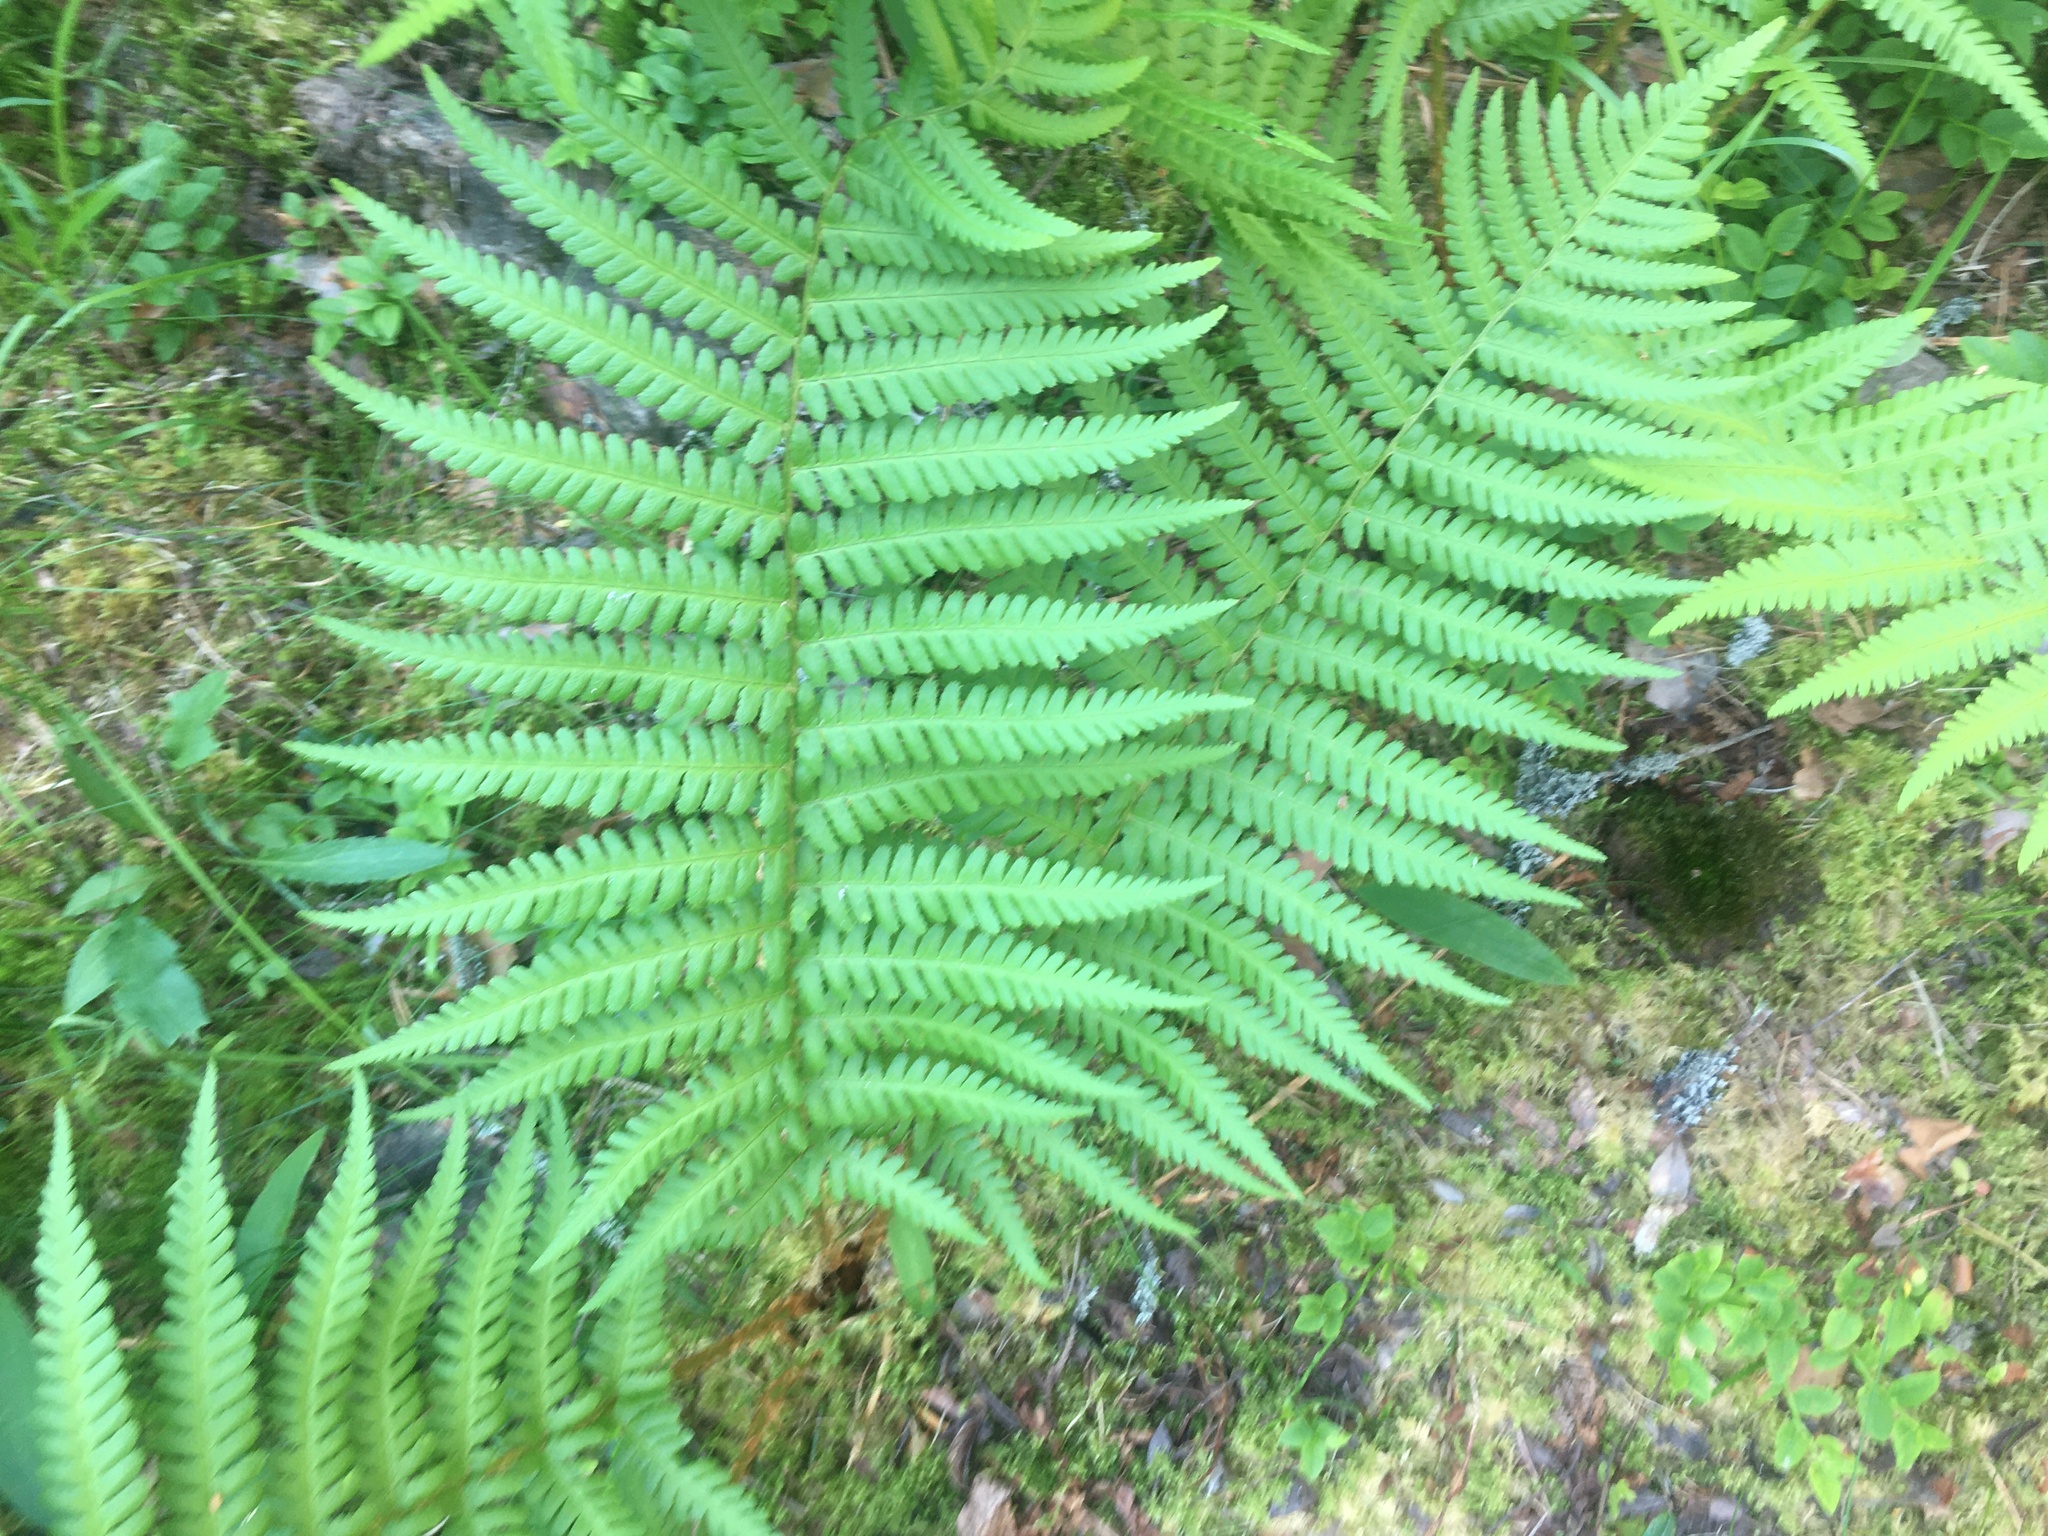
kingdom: Plantae
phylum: Tracheophyta
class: Polypodiopsida
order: Polypodiales
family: Dryopteridaceae
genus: Dryopteris
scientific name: Dryopteris filix-mas
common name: Male fern
